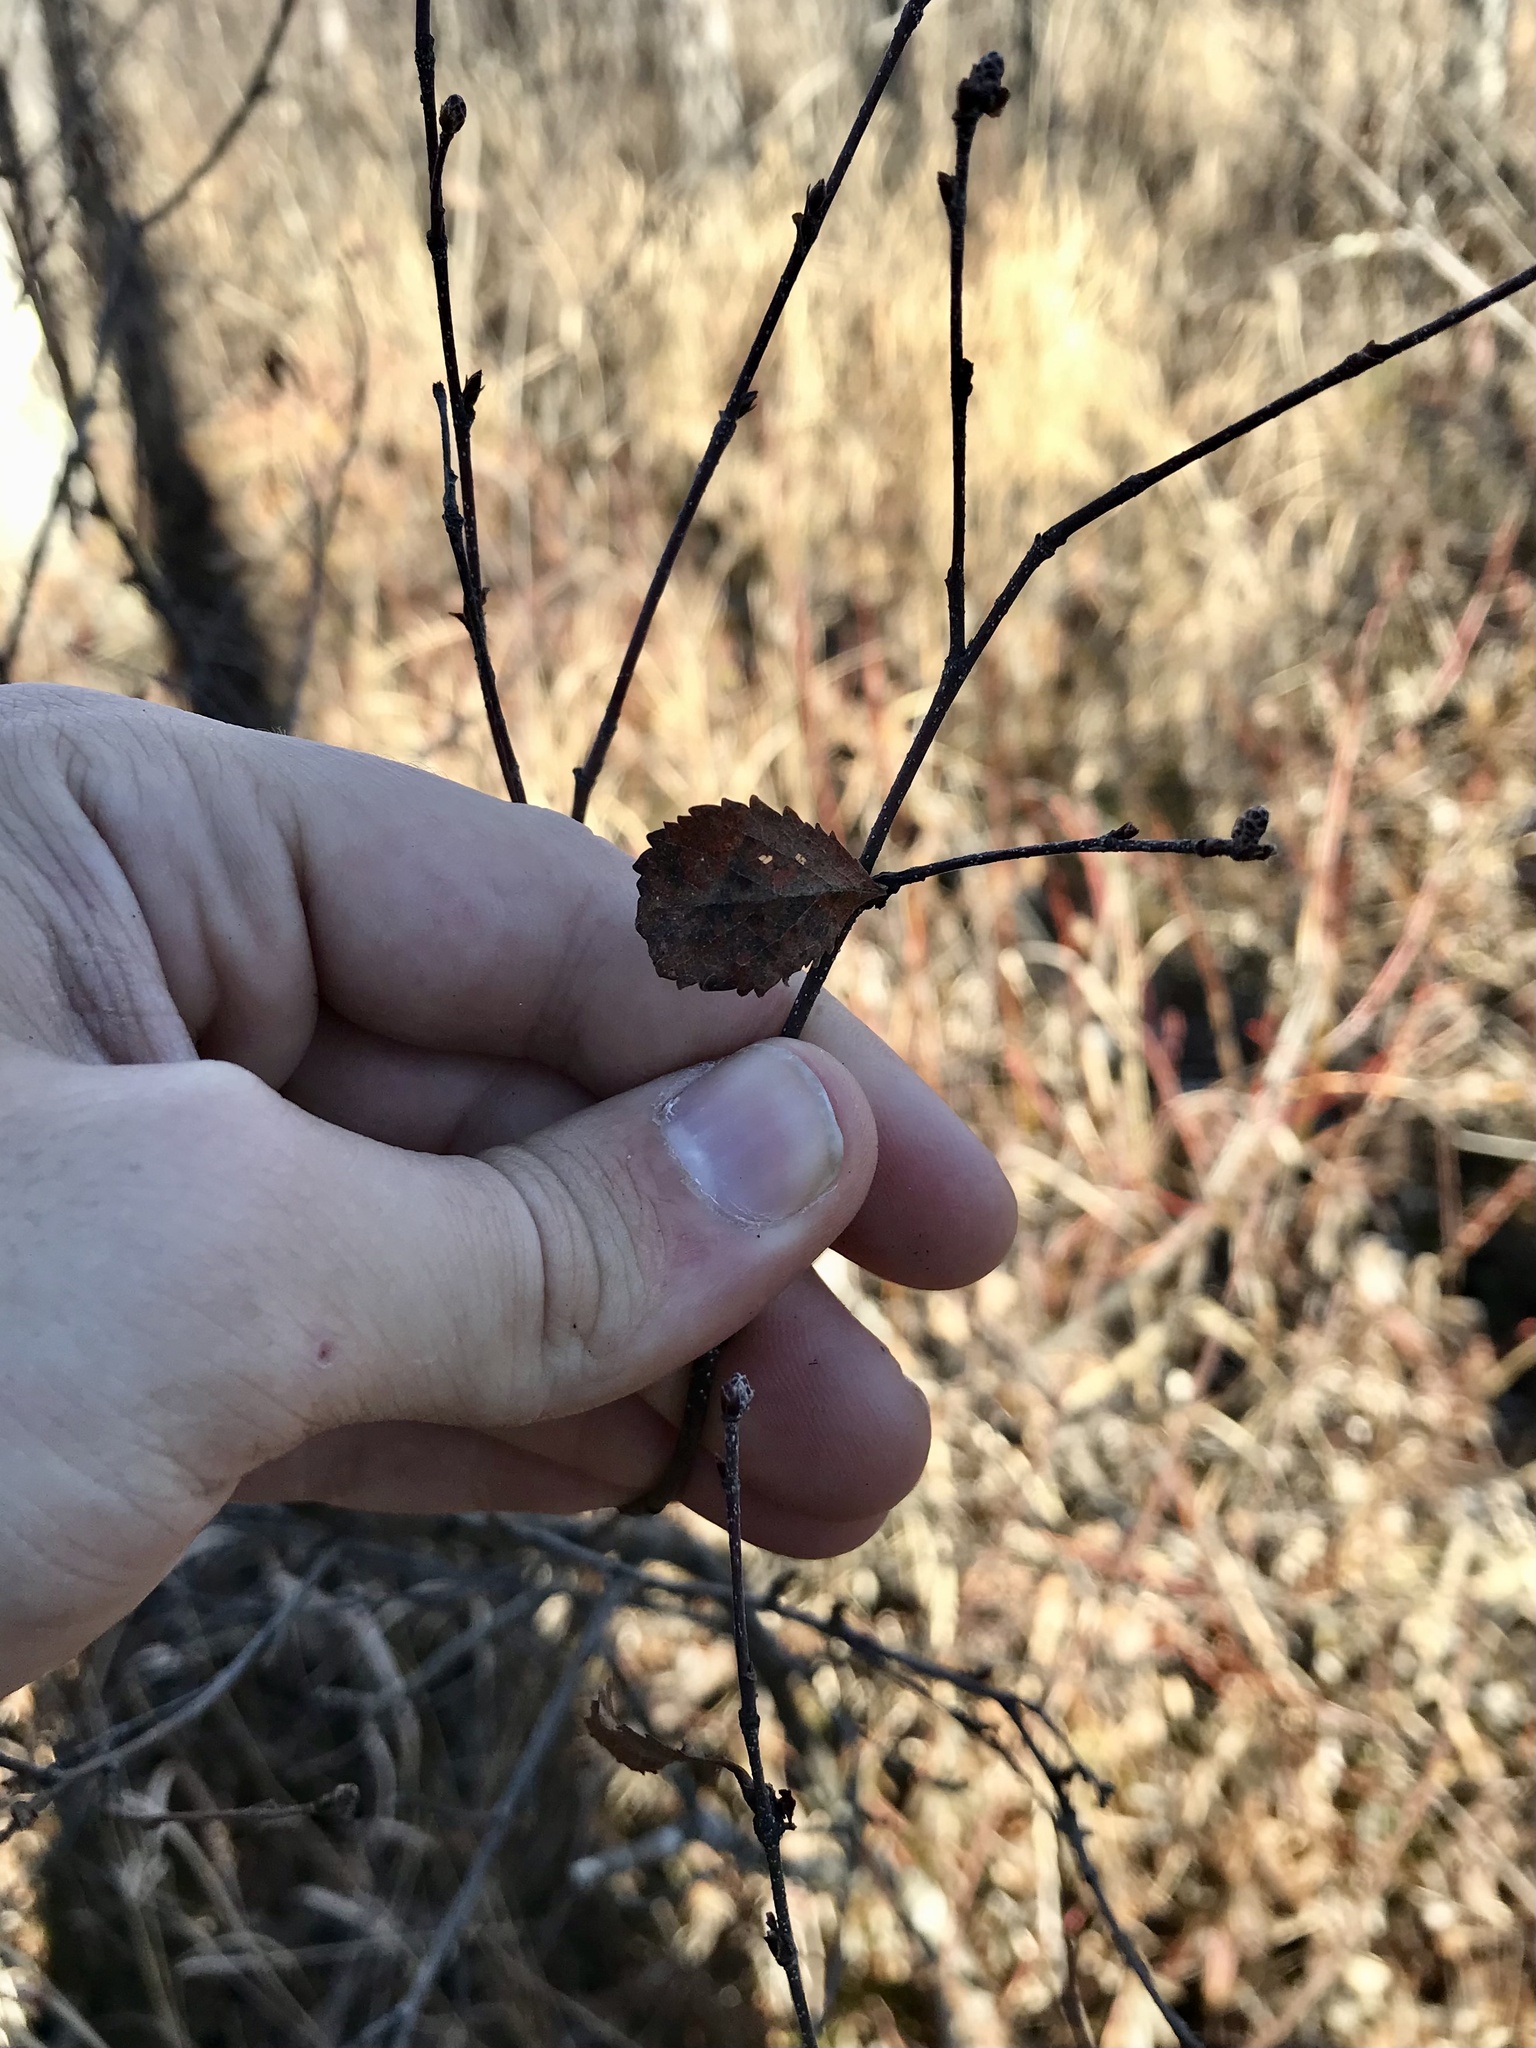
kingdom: Plantae
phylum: Tracheophyta
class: Magnoliopsida
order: Fagales
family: Betulaceae
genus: Betula
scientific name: Betula pumila
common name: Bog birch
